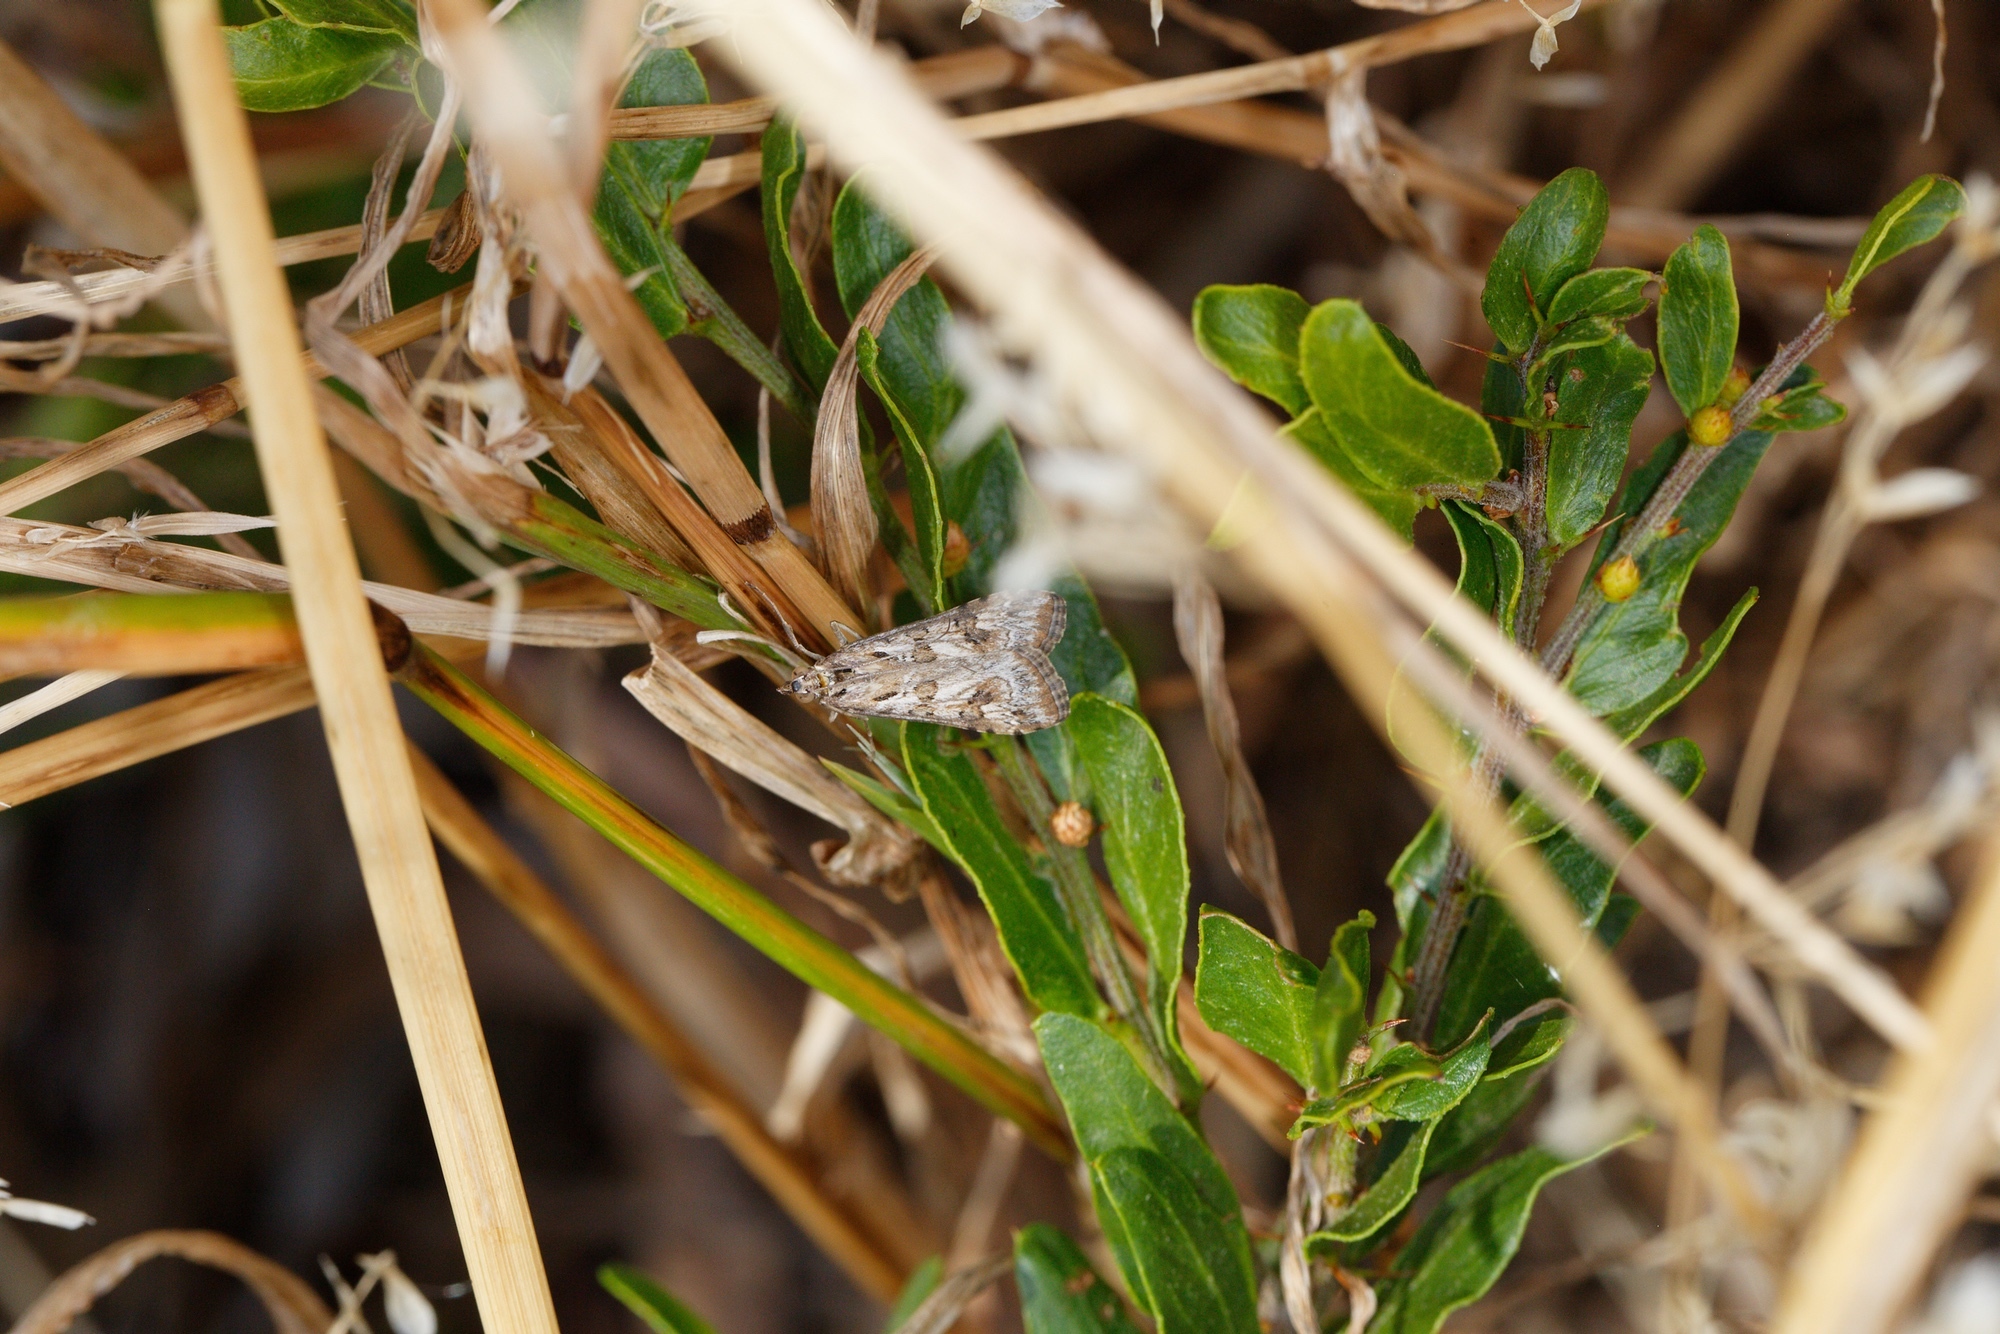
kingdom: Animalia
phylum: Arthropoda
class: Insecta
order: Lepidoptera
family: Crambidae
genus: Nomophila
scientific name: Nomophila corticalis
